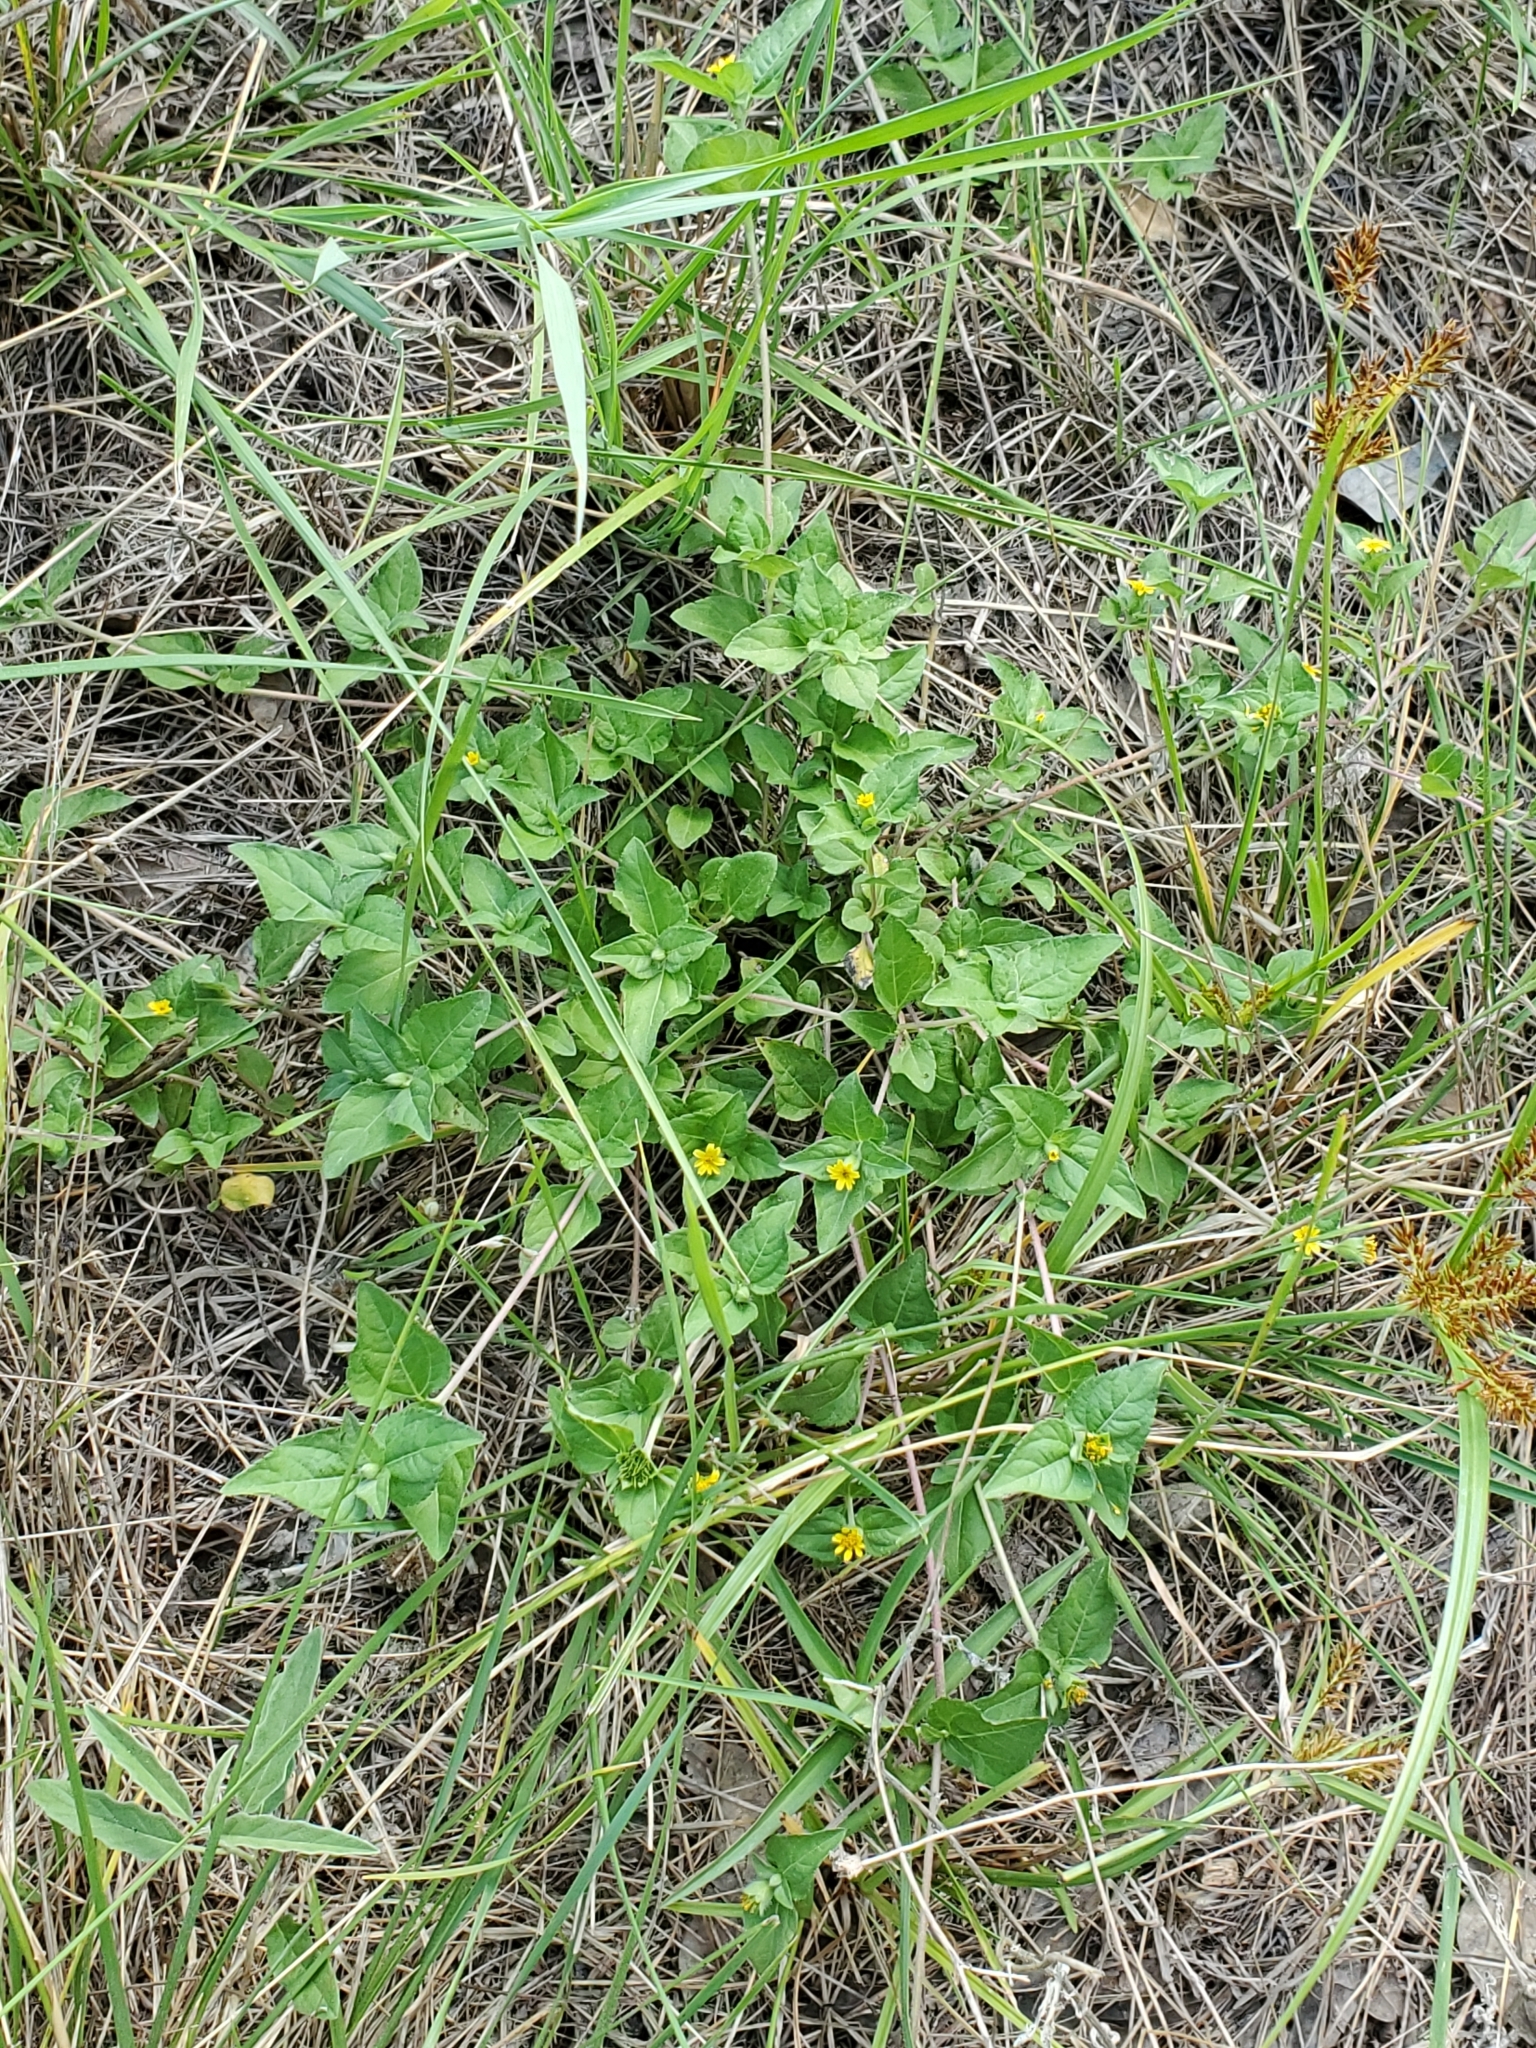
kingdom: Plantae
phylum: Tracheophyta
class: Magnoliopsida
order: Asterales
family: Asteraceae
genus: Calyptocarpus
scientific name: Calyptocarpus vialis
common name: Straggler daisy
